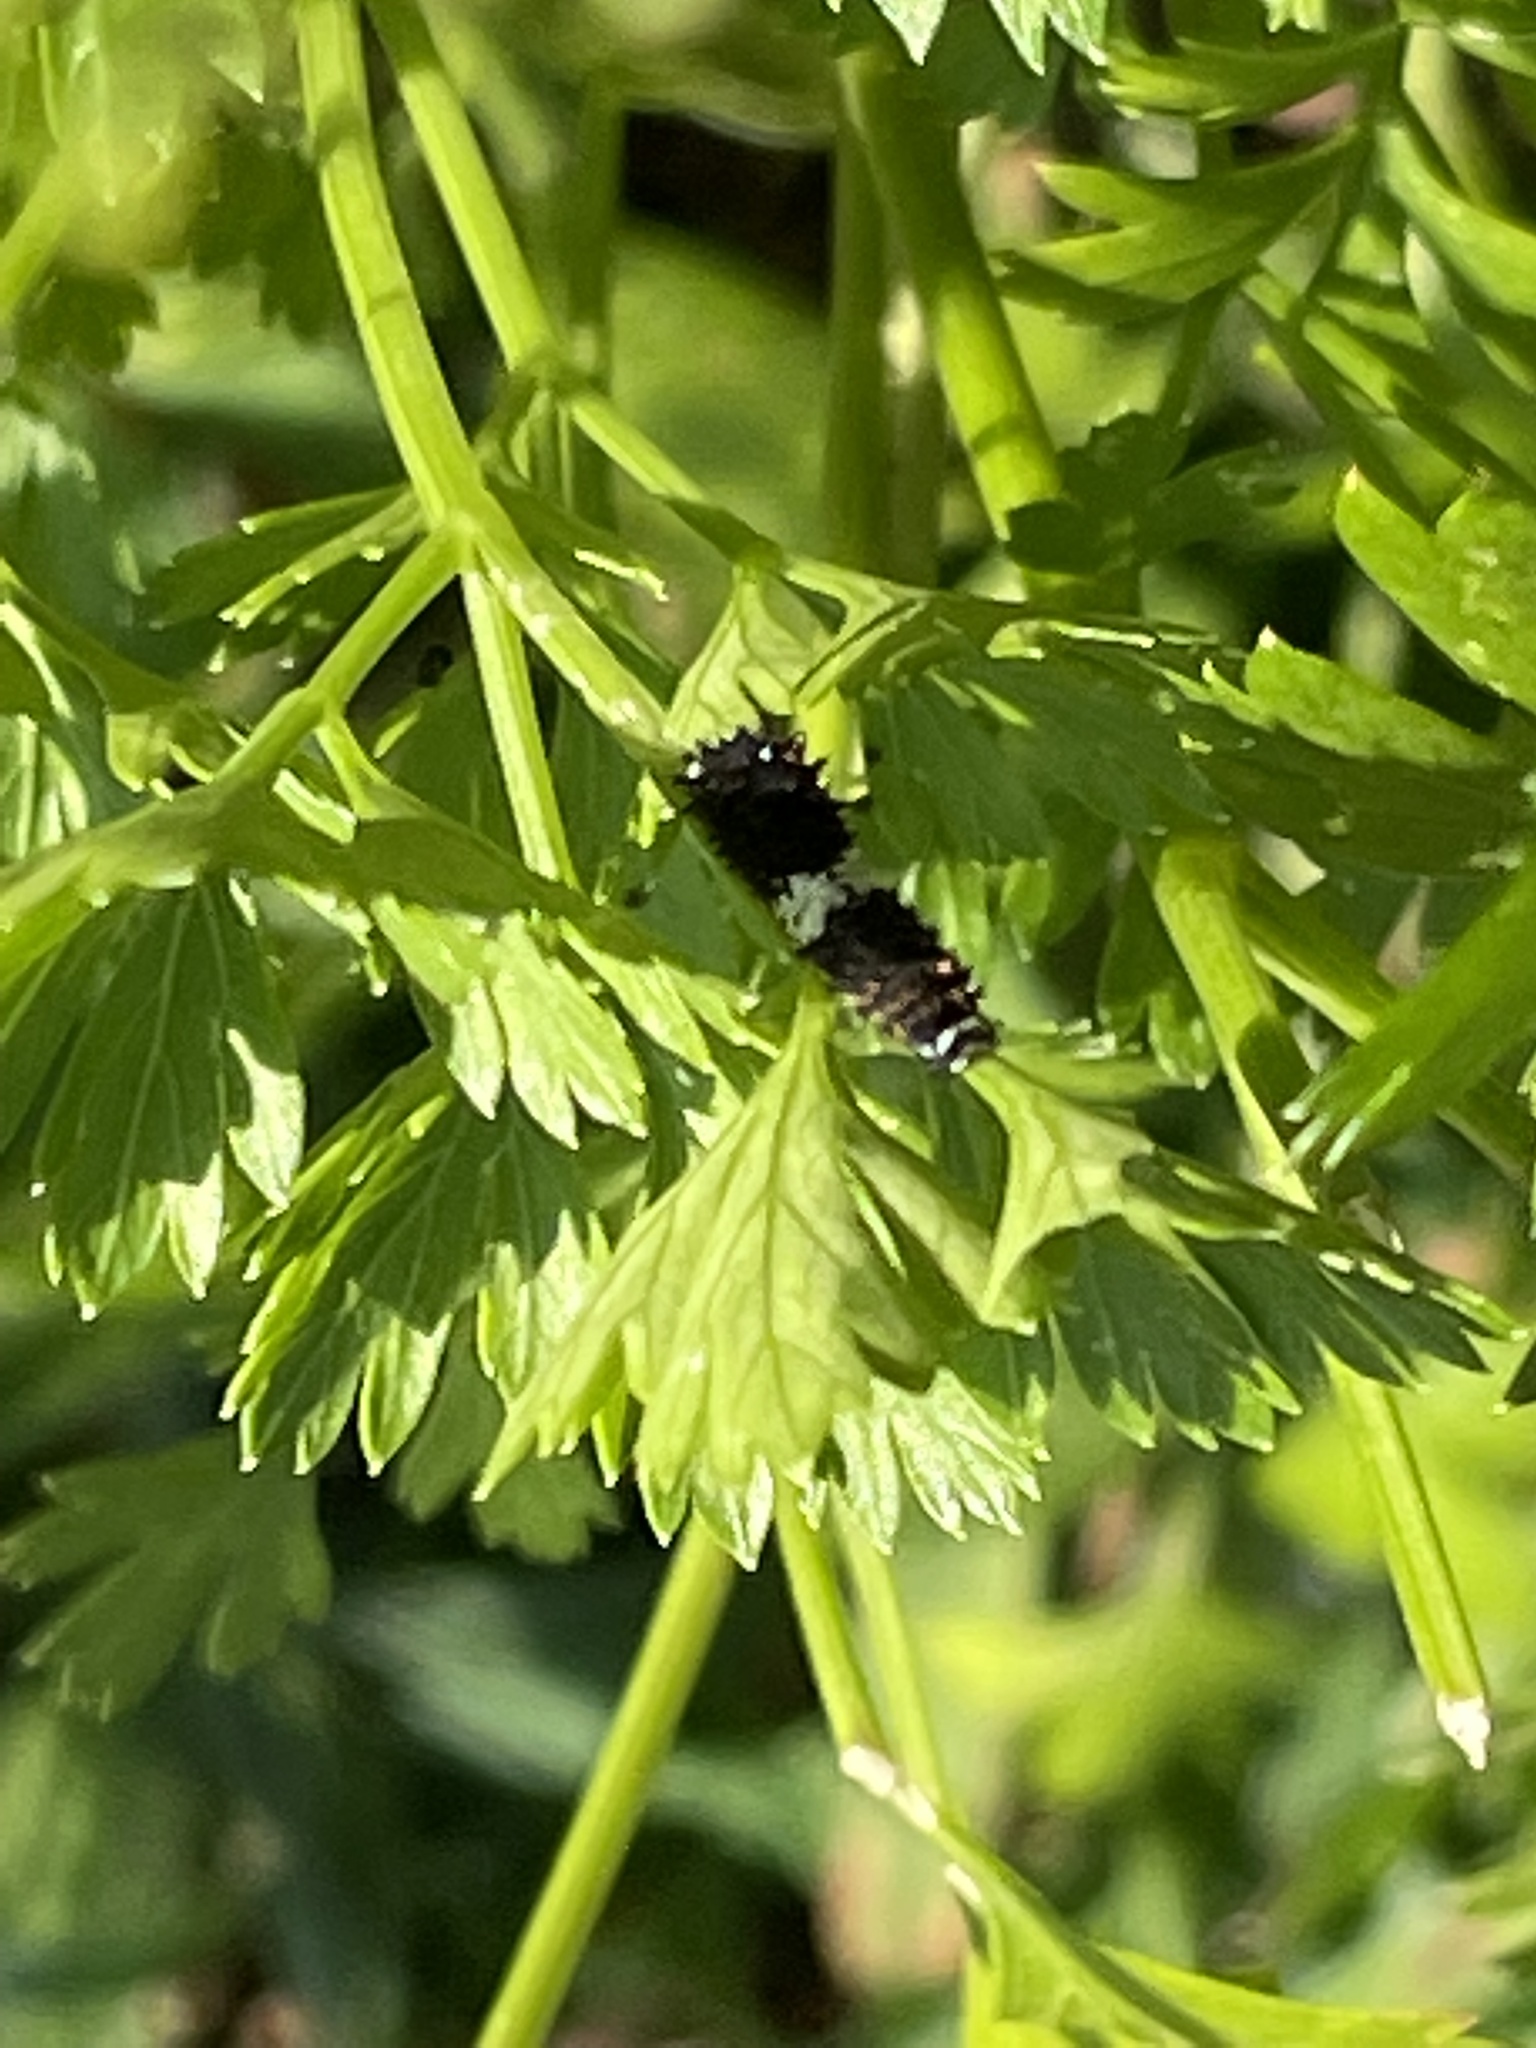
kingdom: Animalia
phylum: Arthropoda
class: Insecta
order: Lepidoptera
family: Papilionidae
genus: Papilio
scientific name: Papilio polyxenes
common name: Black swallowtail
